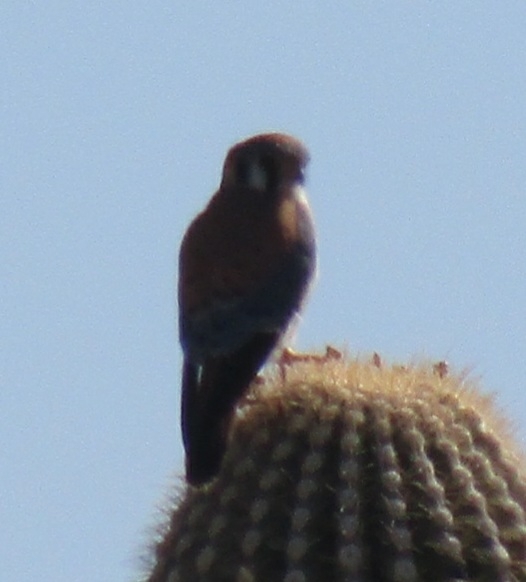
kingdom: Animalia
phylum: Chordata
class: Aves
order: Falconiformes
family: Falconidae
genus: Falco
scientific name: Falco sparverius
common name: American kestrel
